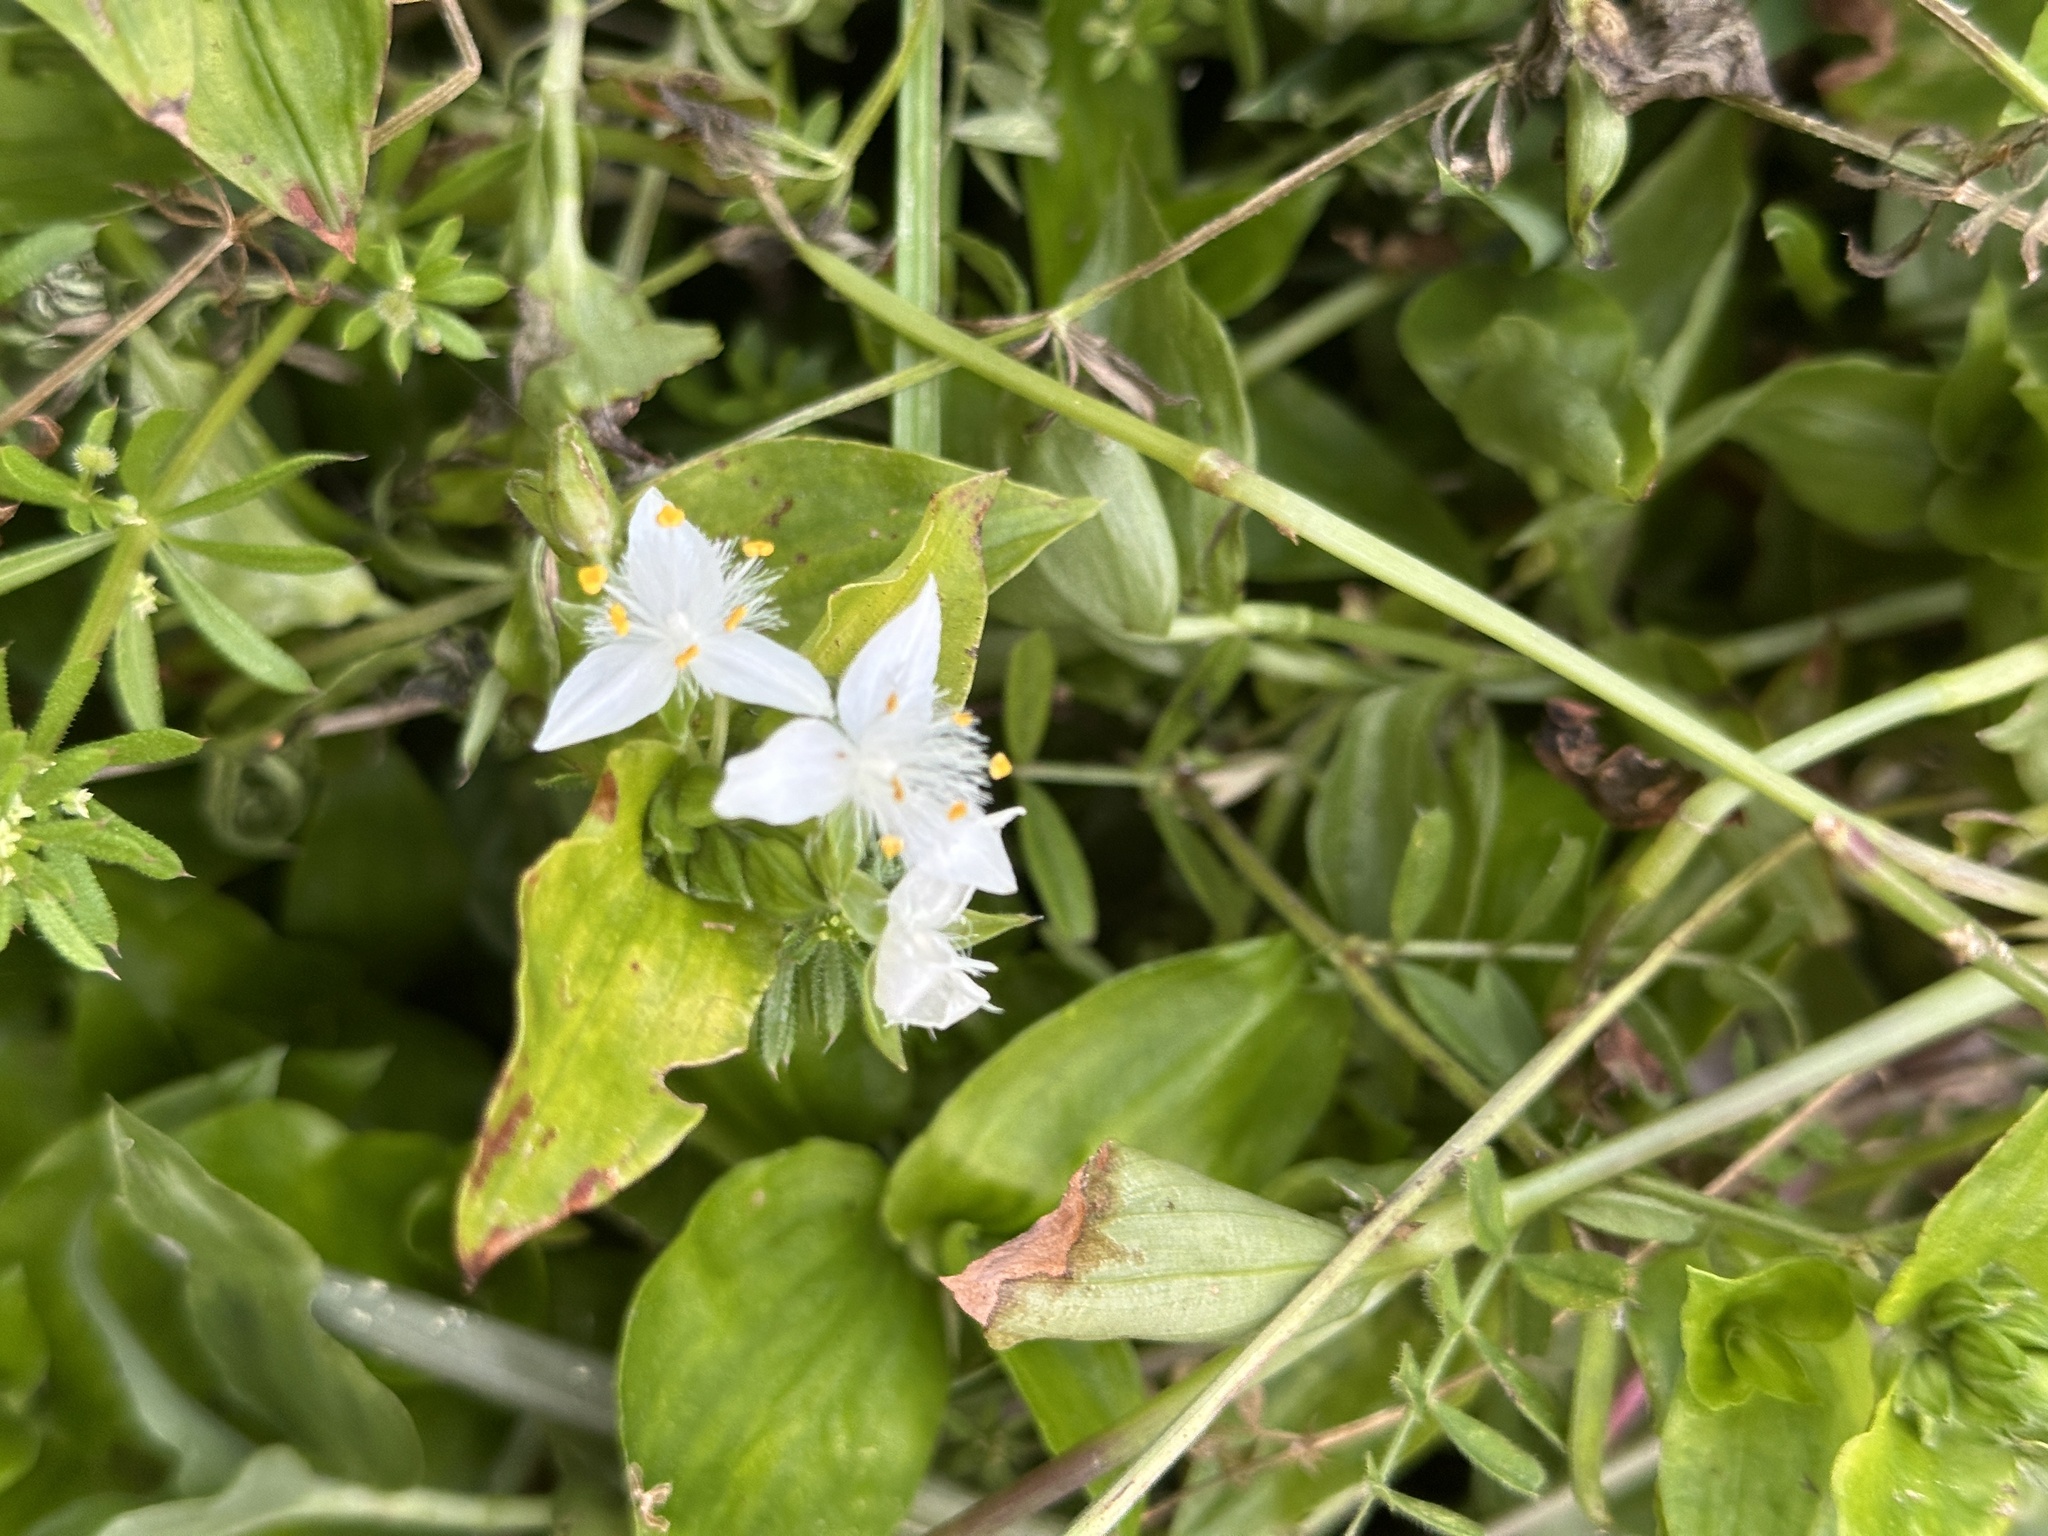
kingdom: Plantae
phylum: Tracheophyta
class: Liliopsida
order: Commelinales
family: Commelinaceae
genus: Tradescantia
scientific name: Tradescantia fluminensis
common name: Wandering-jew
